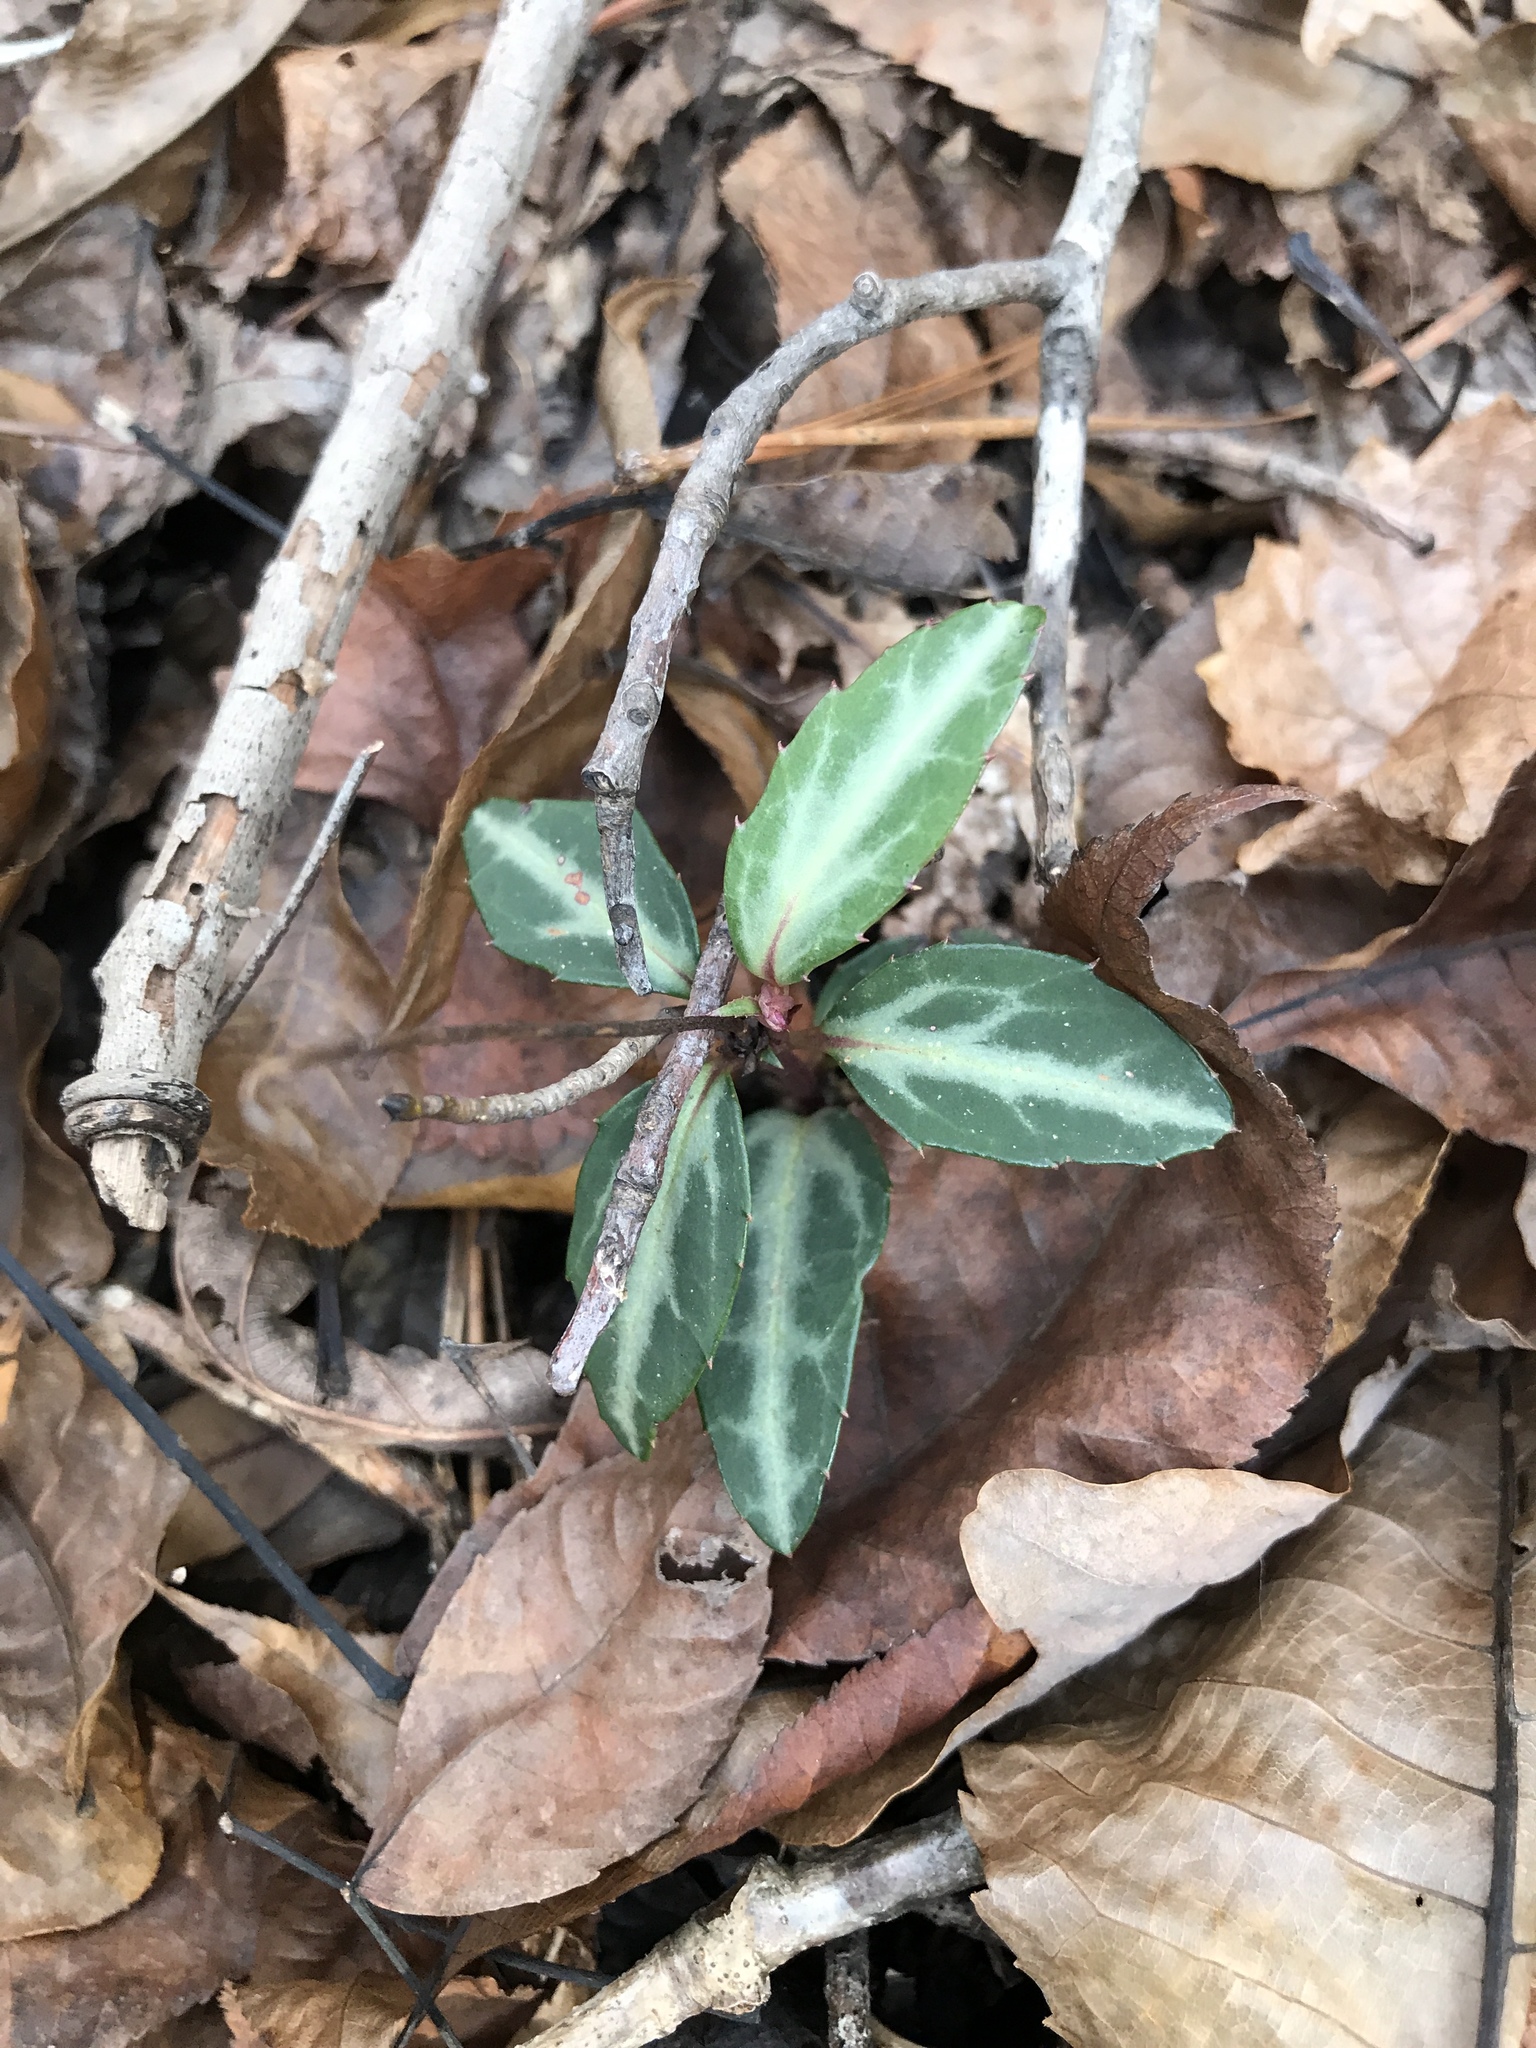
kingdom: Plantae
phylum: Tracheophyta
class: Magnoliopsida
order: Ericales
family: Ericaceae
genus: Chimaphila
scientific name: Chimaphila maculata
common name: Spotted pipsissewa
